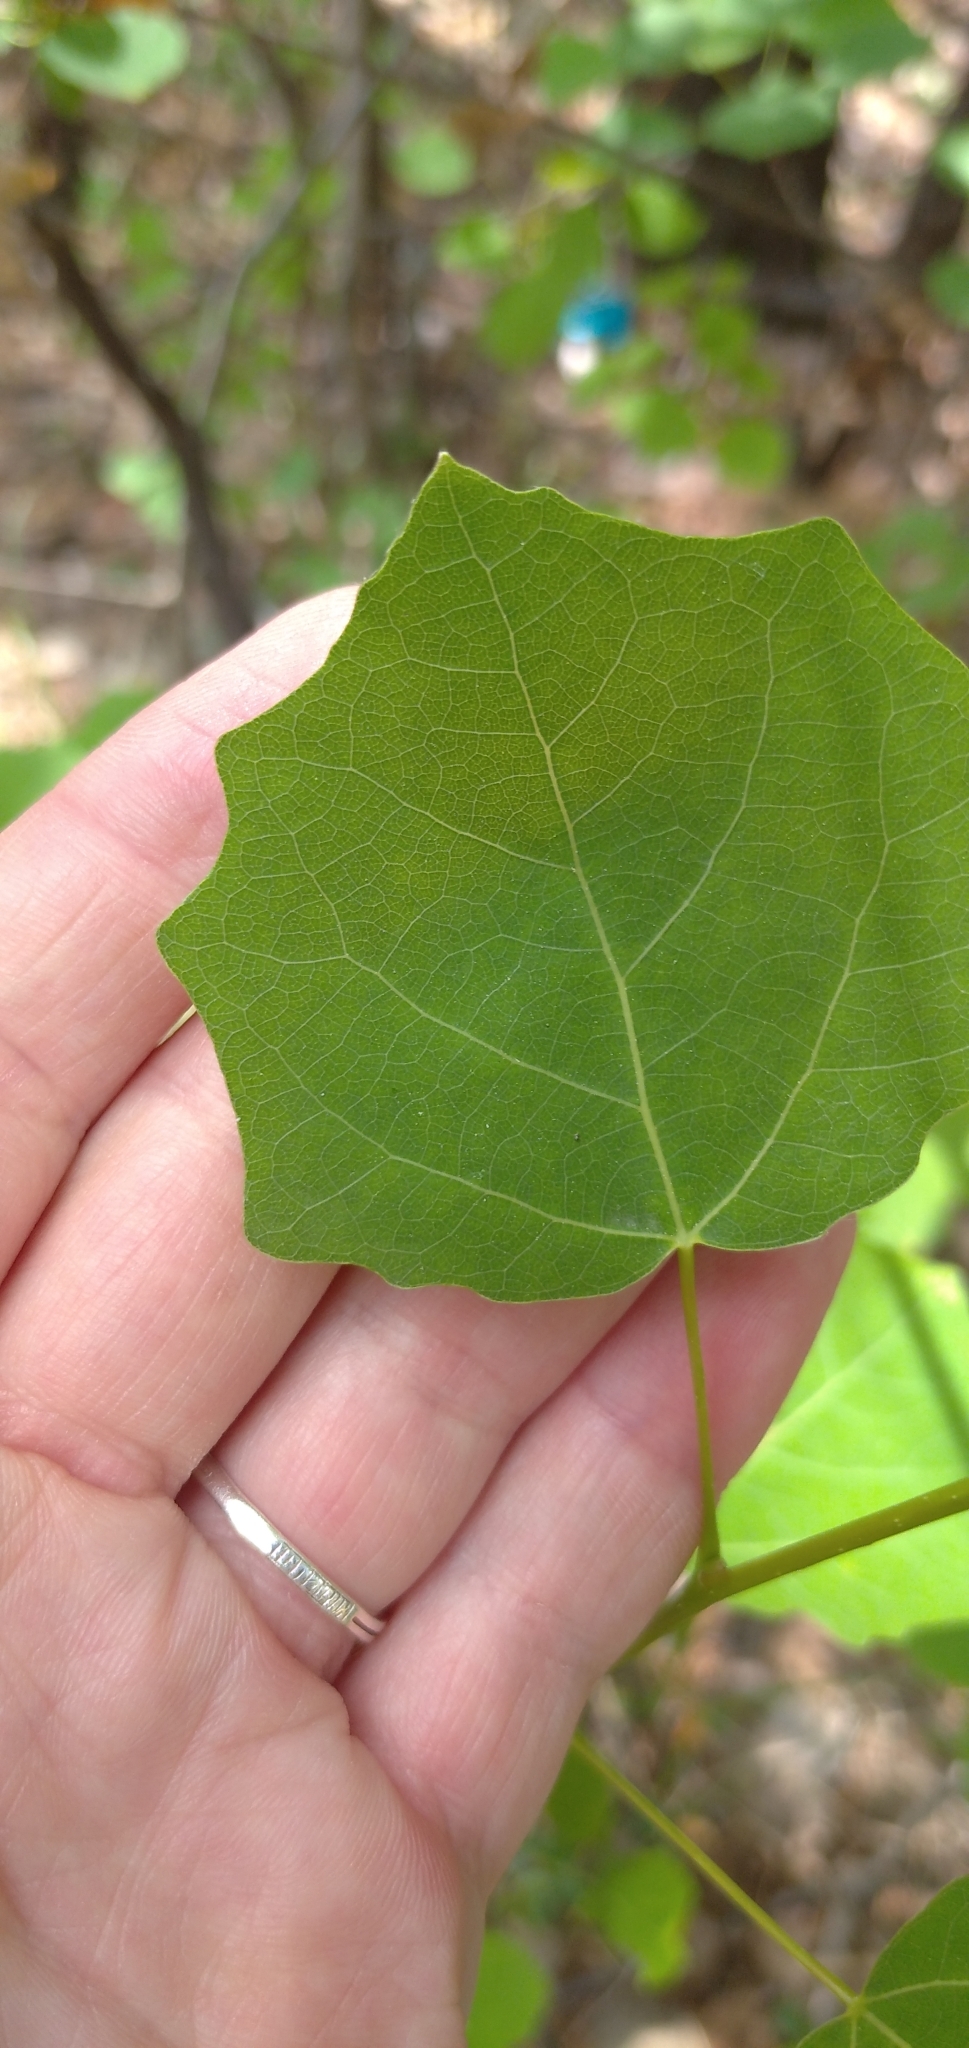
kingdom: Plantae
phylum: Tracheophyta
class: Magnoliopsida
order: Malpighiales
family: Salicaceae
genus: Populus
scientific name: Populus tremula
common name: European aspen
